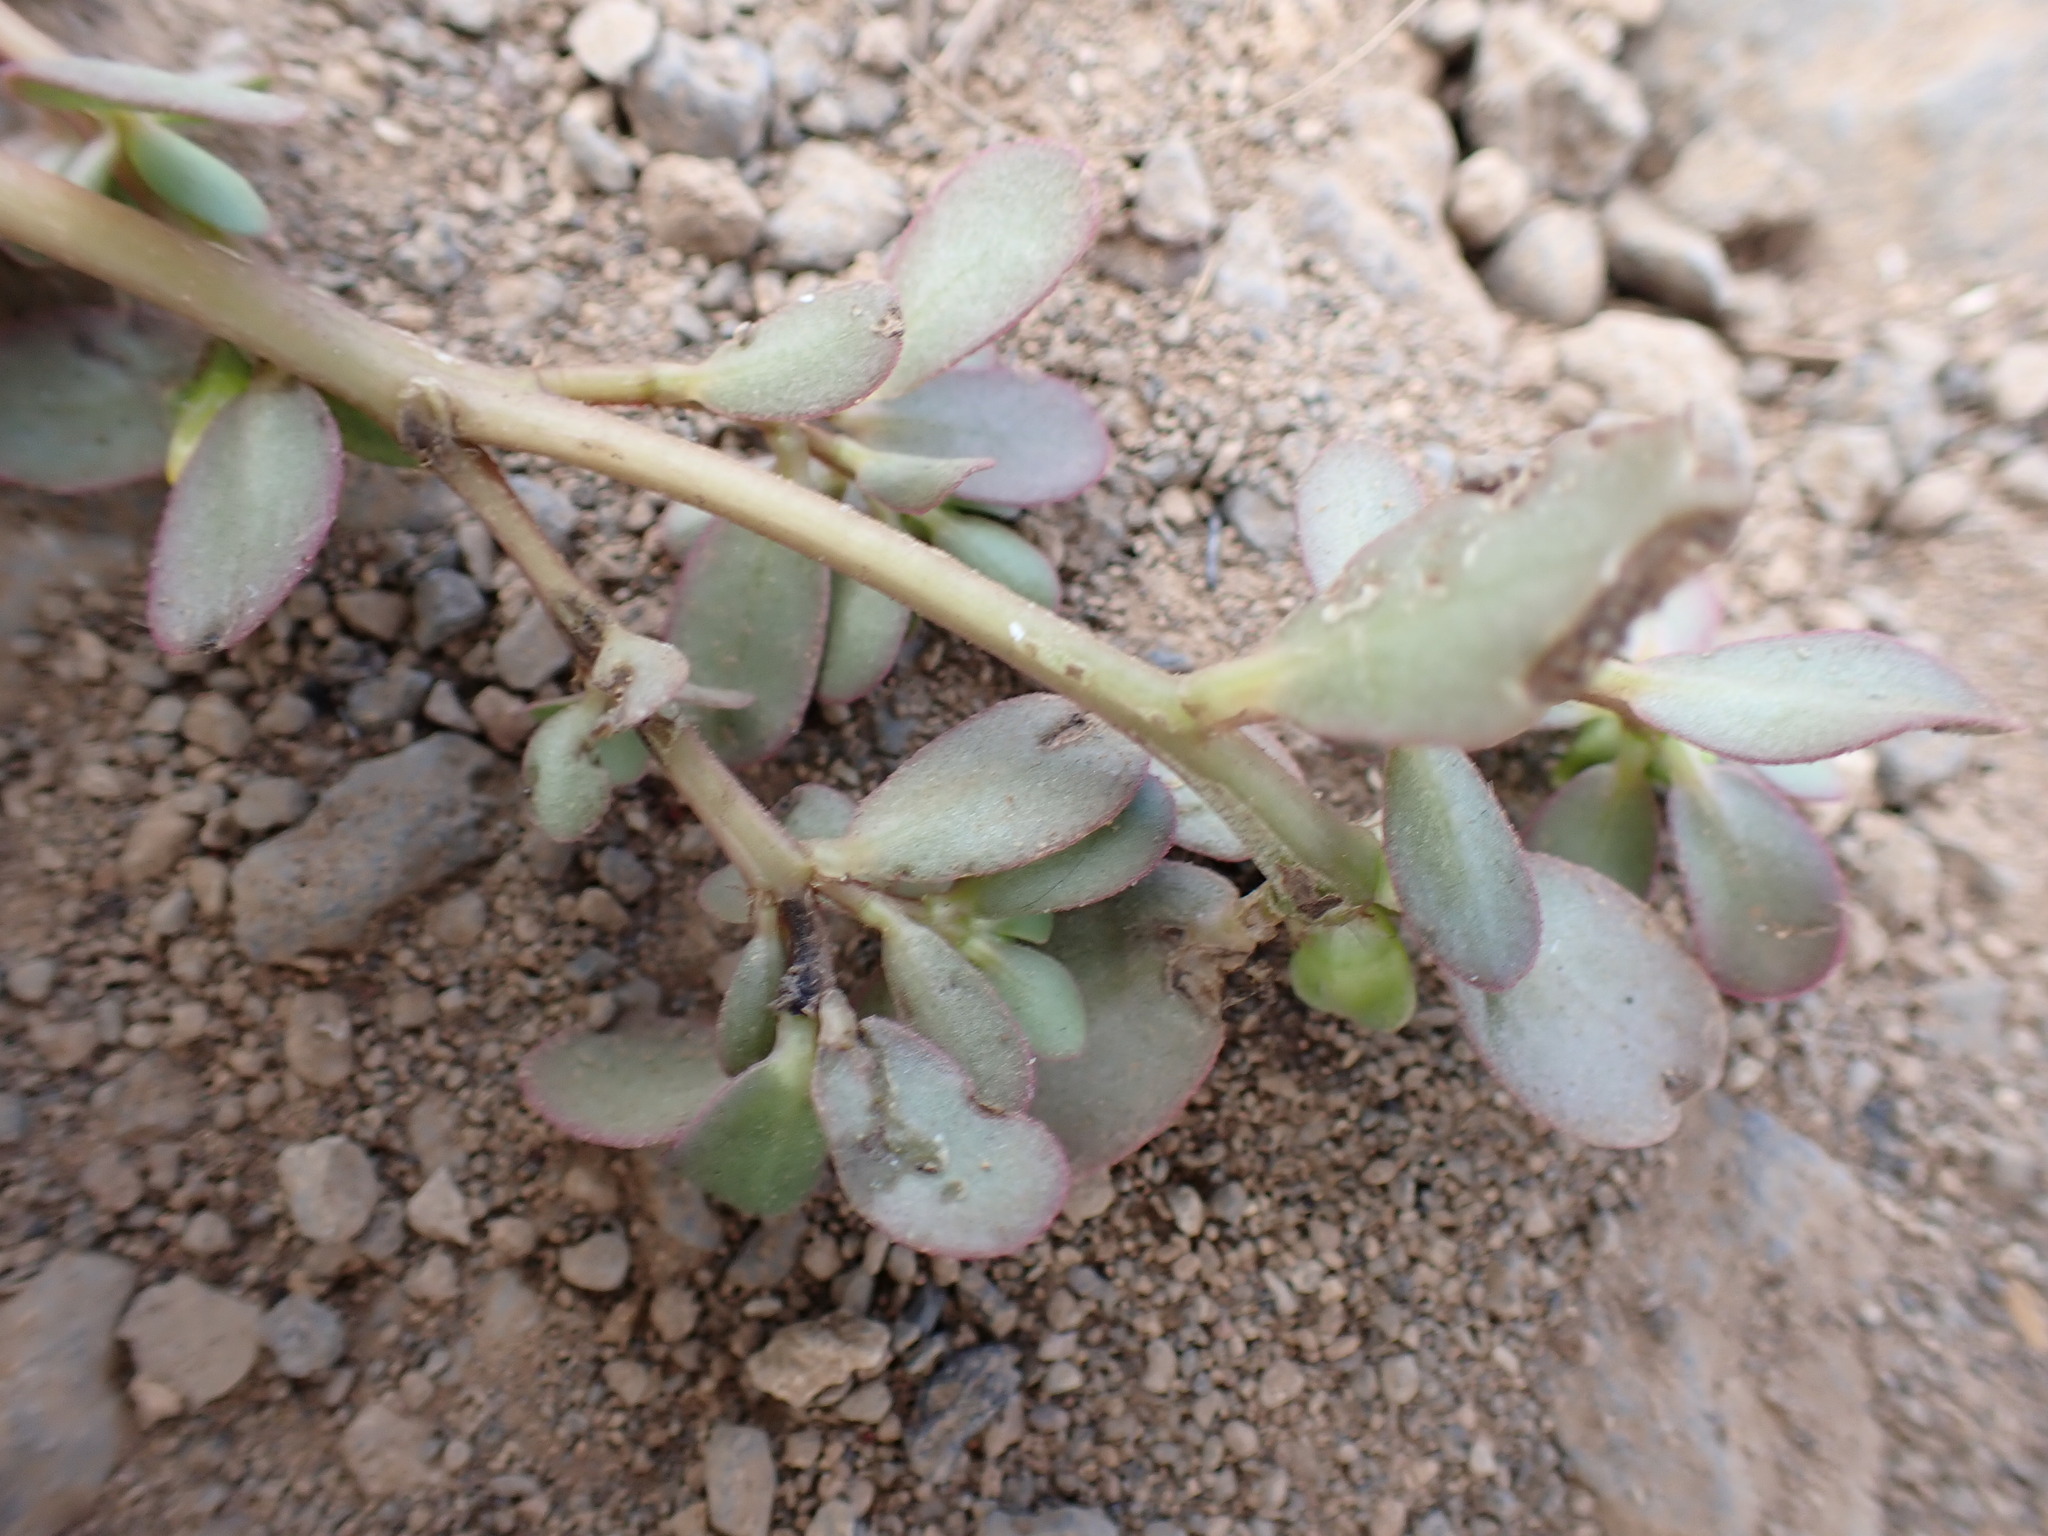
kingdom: Plantae
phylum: Tracheophyta
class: Magnoliopsida
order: Caryophyllales
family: Portulacaceae
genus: Portulaca
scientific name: Portulaca oleracea
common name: Common purslane
